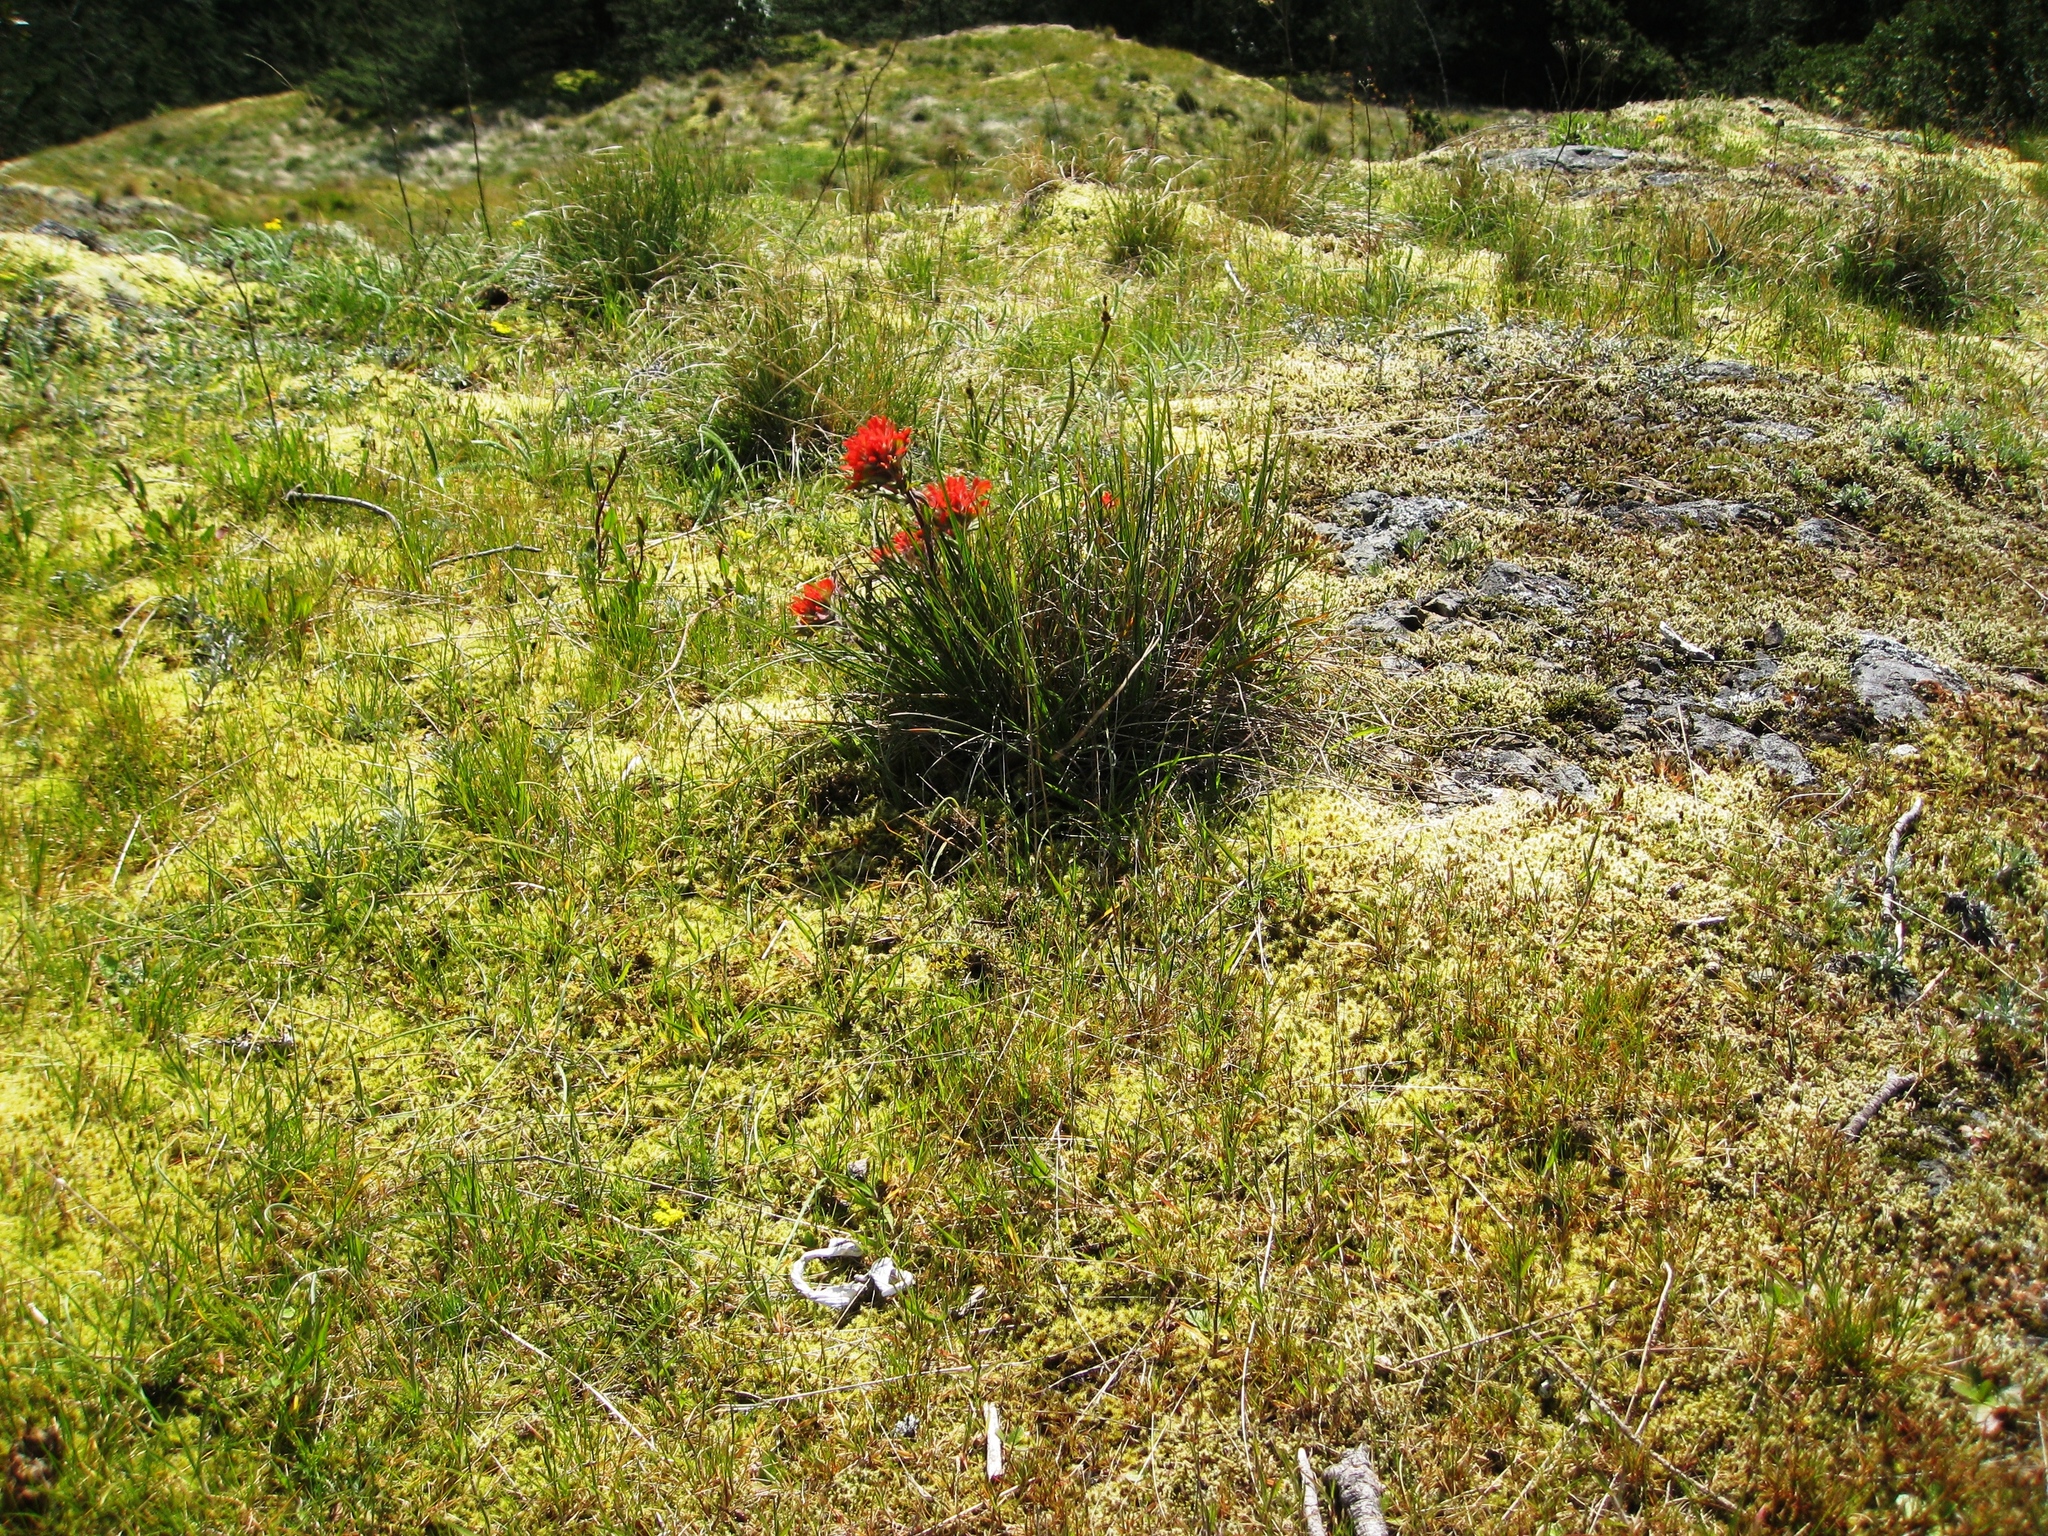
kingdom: Plantae
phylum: Tracheophyta
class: Magnoliopsida
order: Lamiales
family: Orobanchaceae
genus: Castilleja
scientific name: Castilleja hispida
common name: Bristly paintbrush
